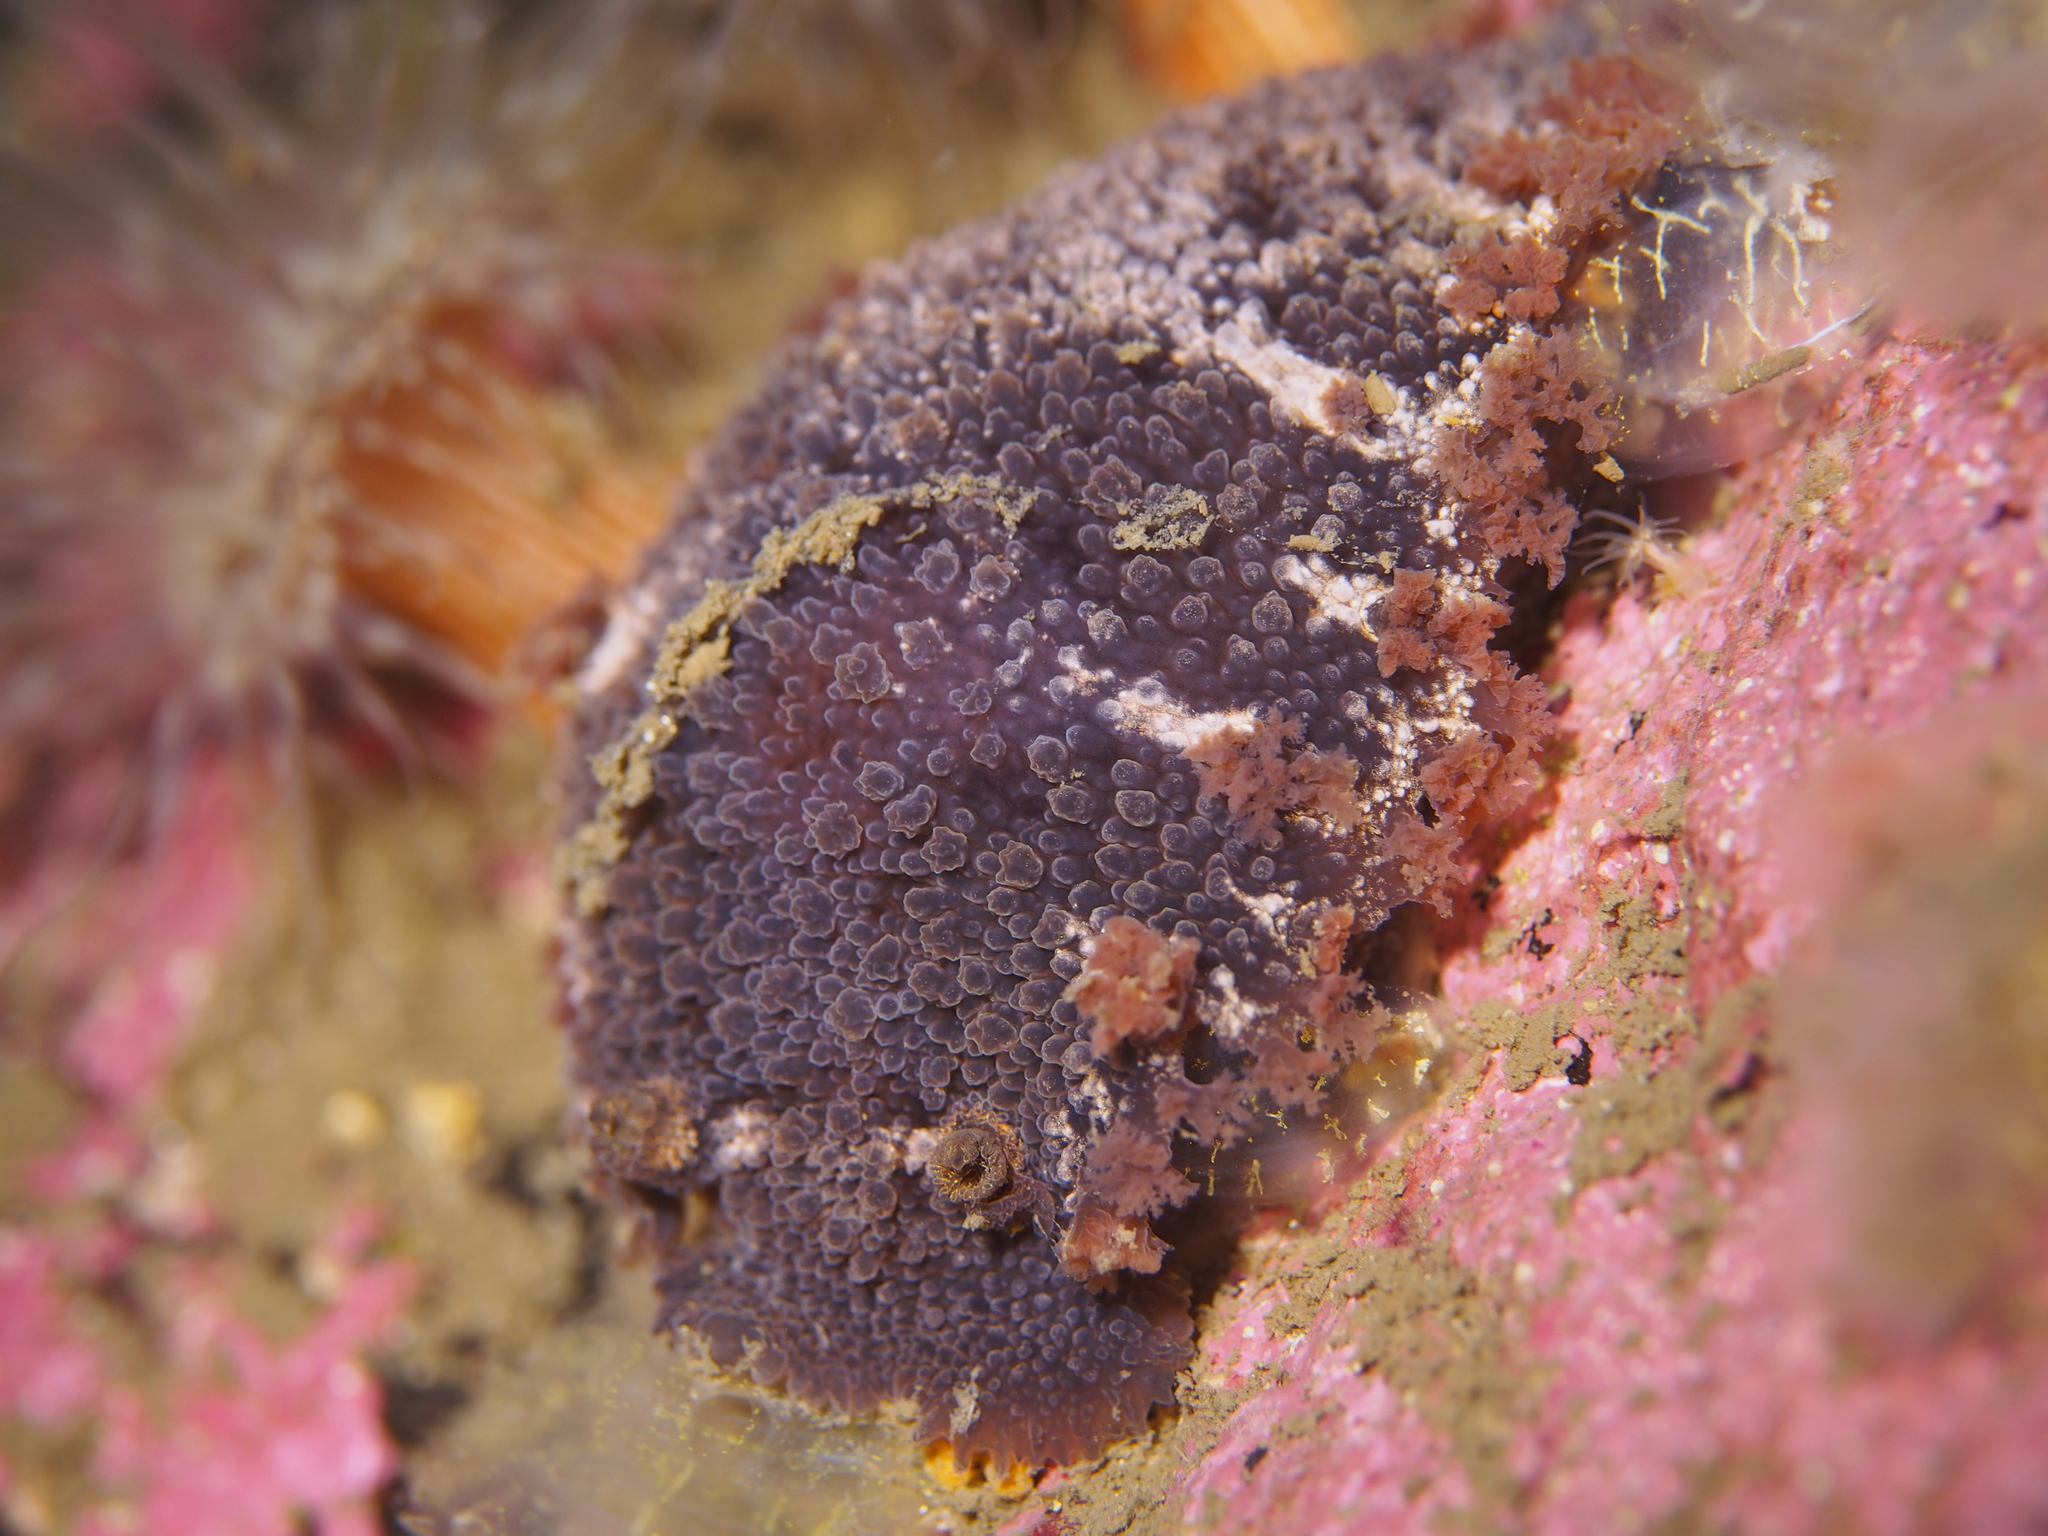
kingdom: Animalia
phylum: Mollusca
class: Gastropoda
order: Nudibranchia
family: Tritoniidae
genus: Tritonia
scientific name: Tritonia hombergii
